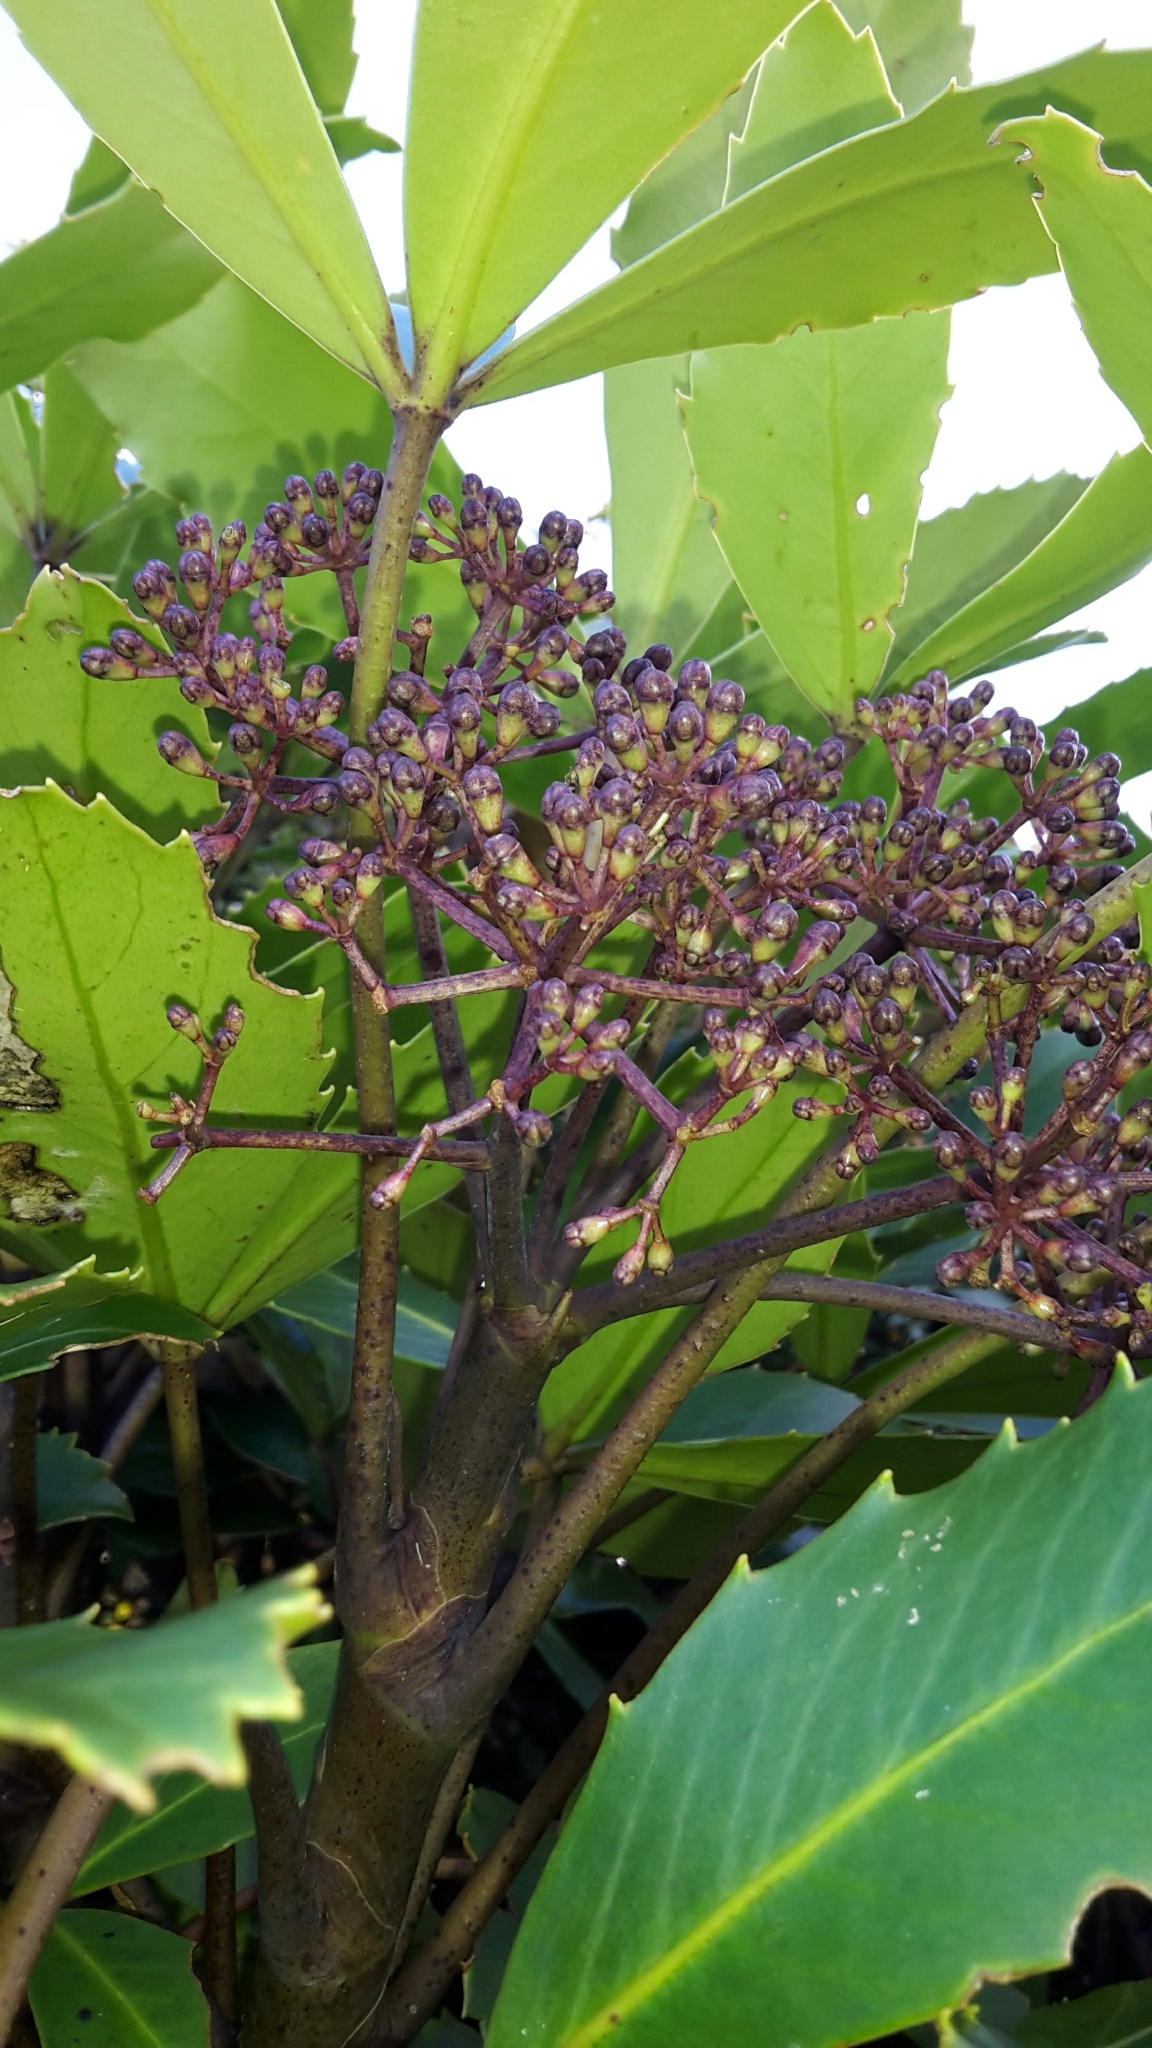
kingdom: Plantae
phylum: Tracheophyta
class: Magnoliopsida
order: Apiales
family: Araliaceae
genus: Neopanax
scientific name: Neopanax colensoi
